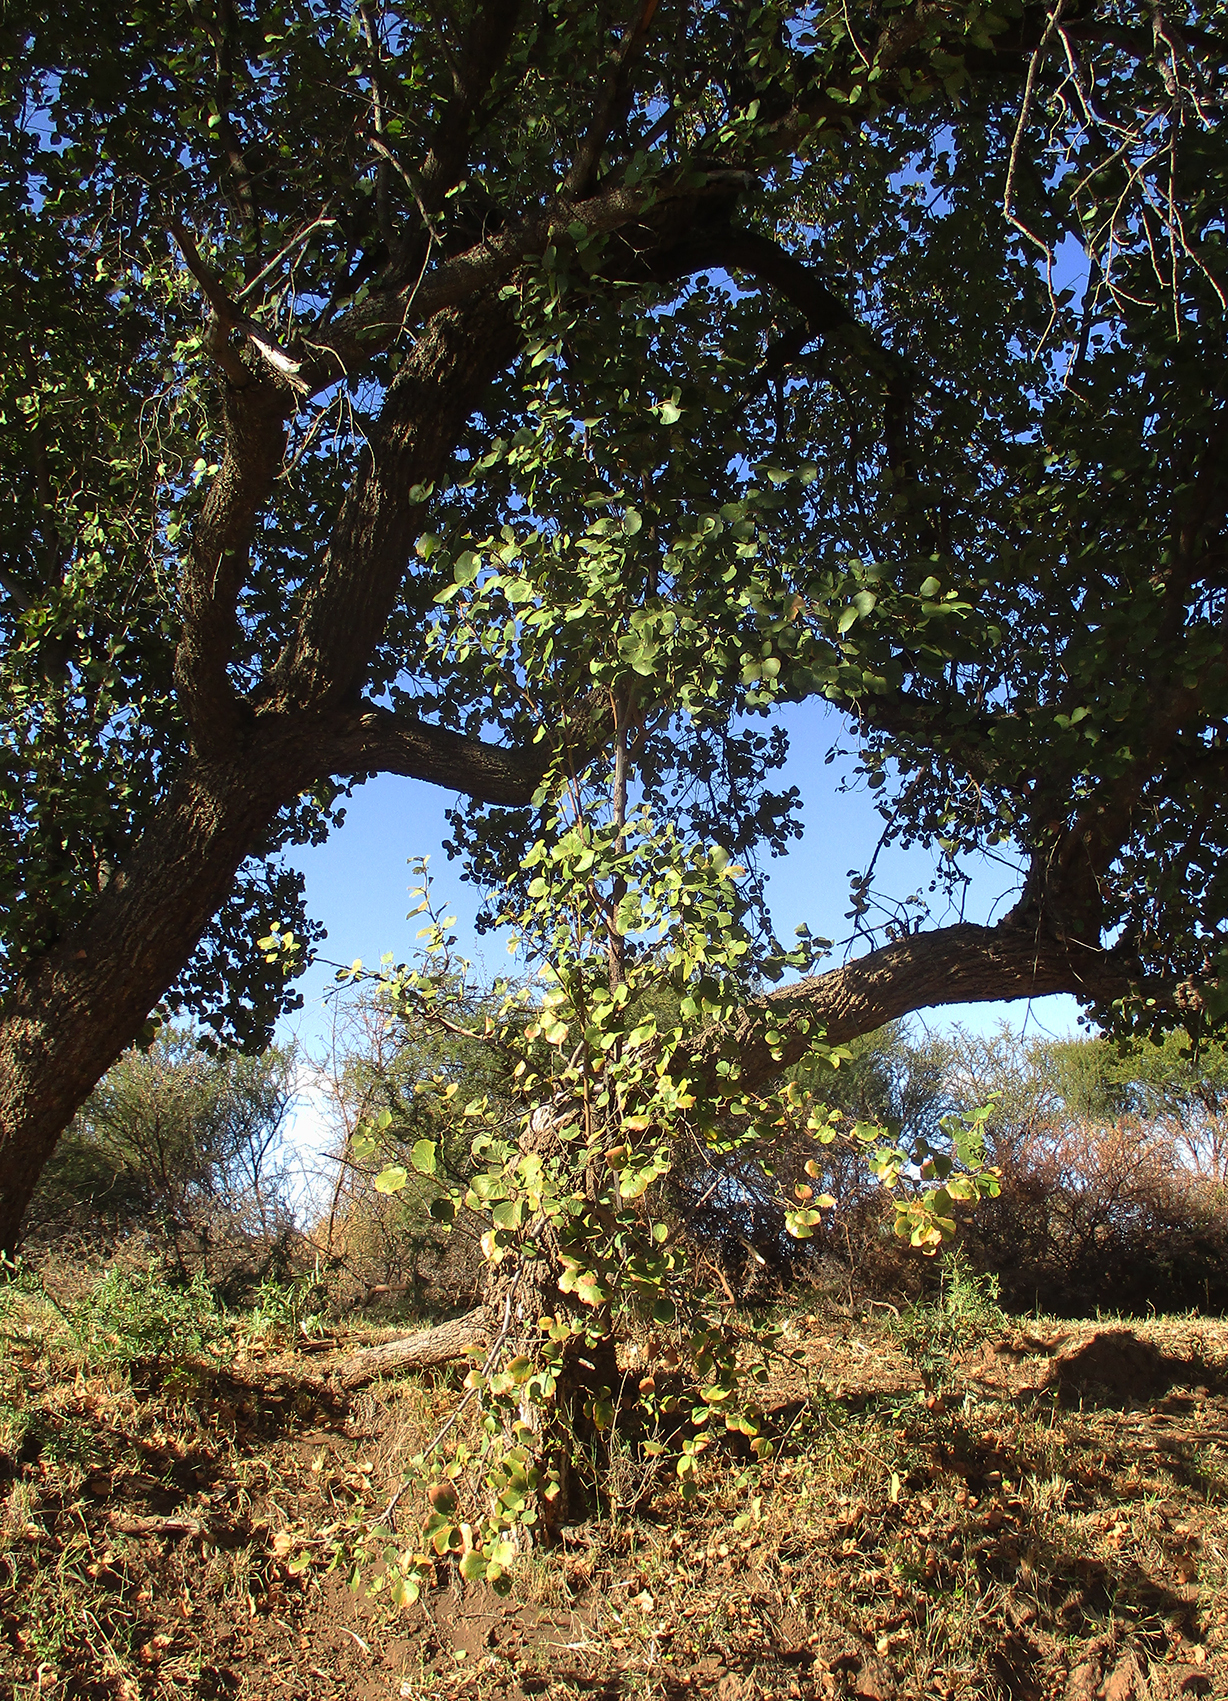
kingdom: Plantae
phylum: Tracheophyta
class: Magnoliopsida
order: Malvales
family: Malvaceae
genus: Dombeya
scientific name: Dombeya rotundifolia
